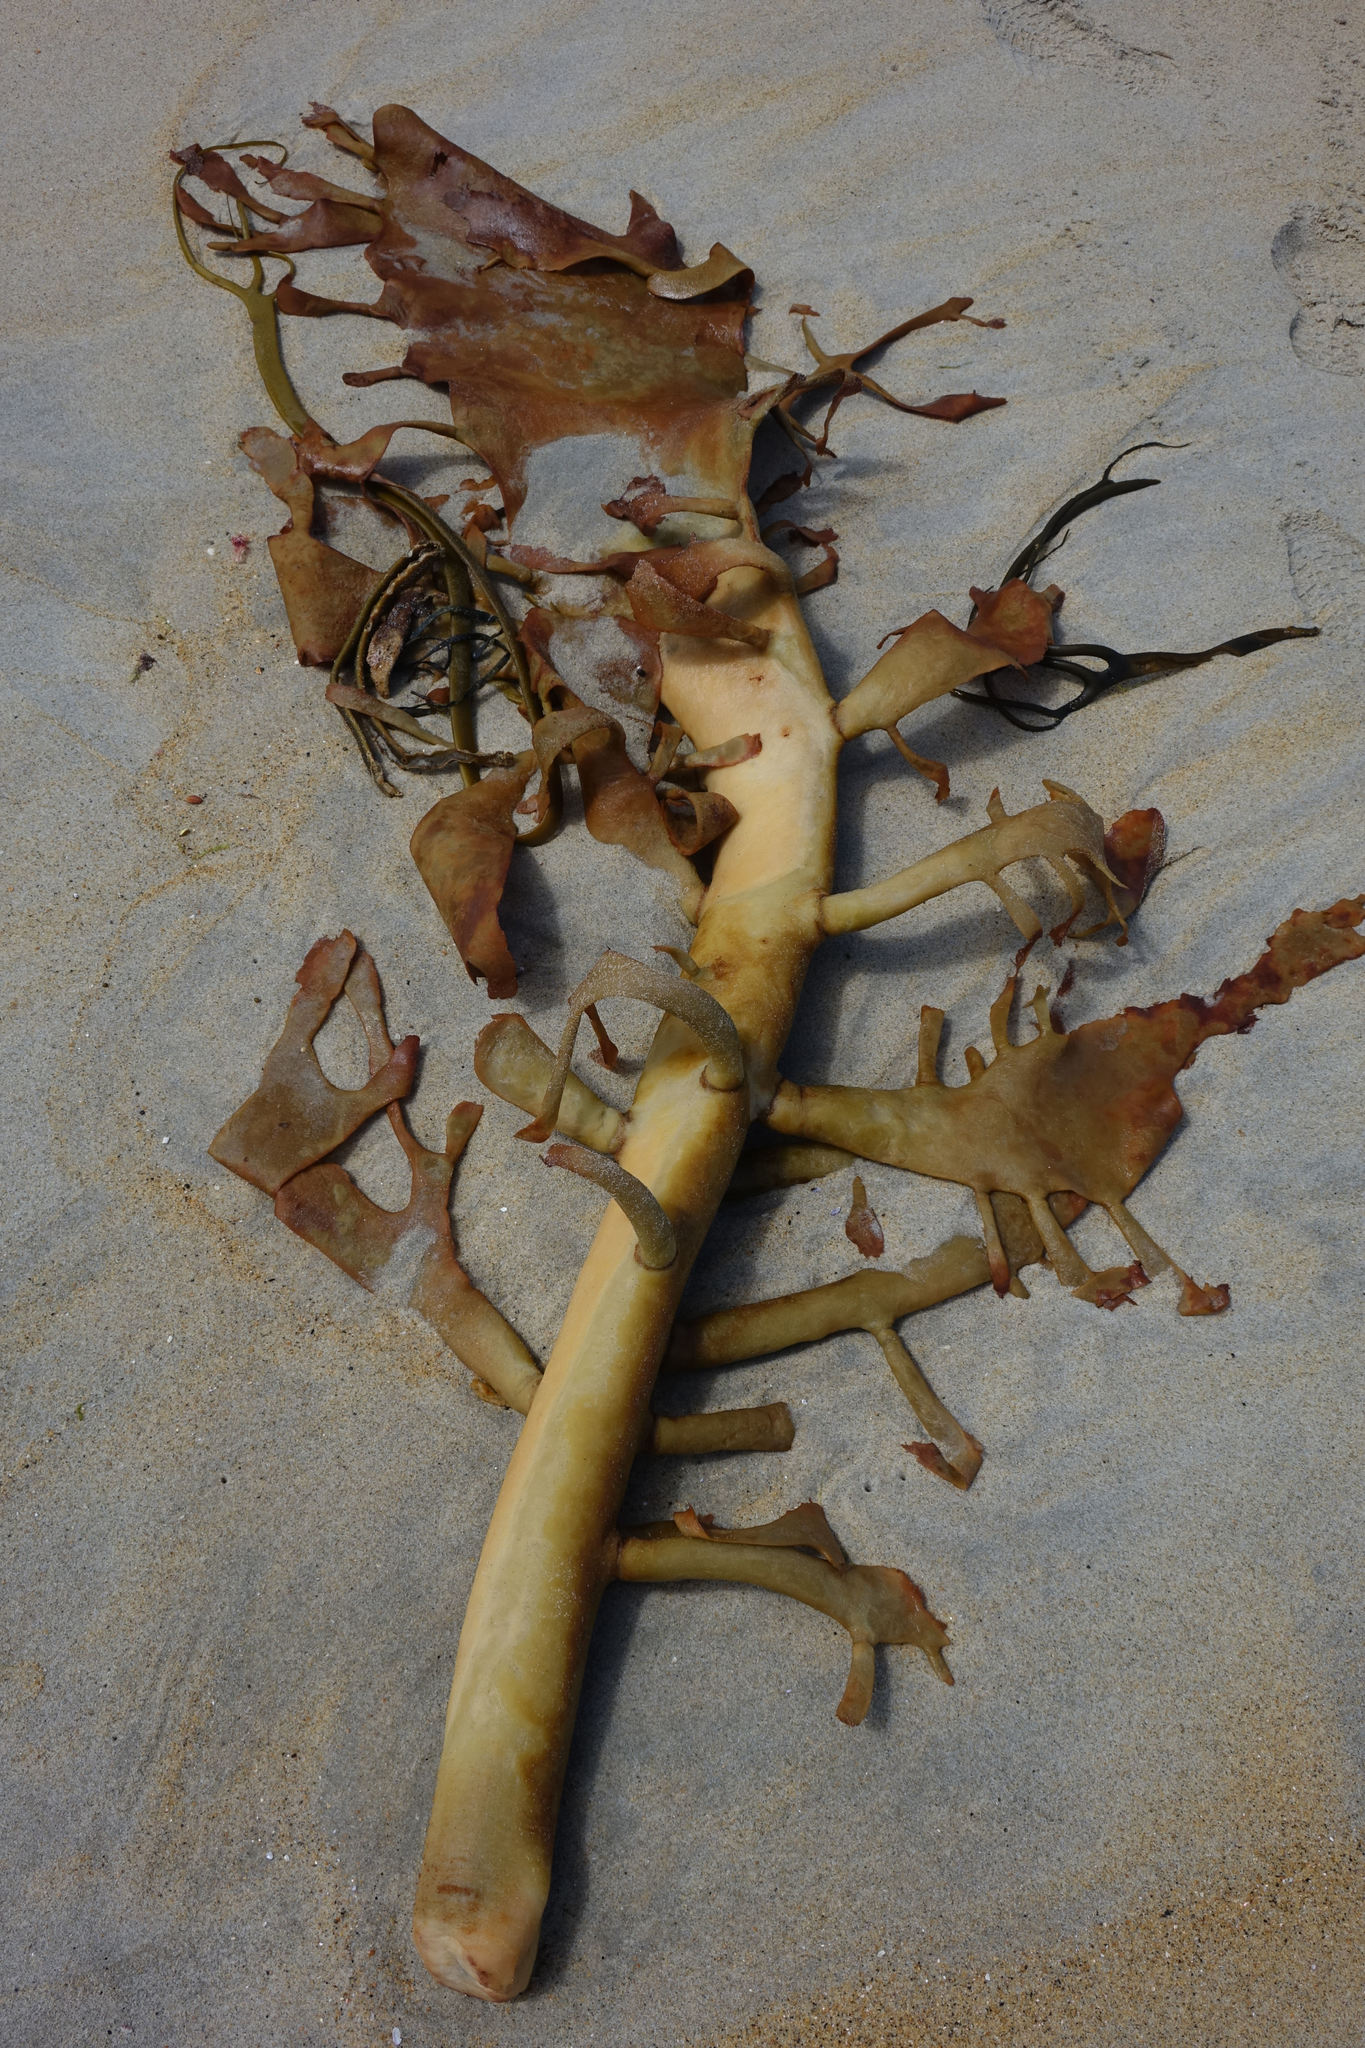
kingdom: Chromista
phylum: Ochrophyta
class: Phaeophyceae
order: Fucales
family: Durvillaeaceae
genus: Durvillaea
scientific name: Durvillaea willana
